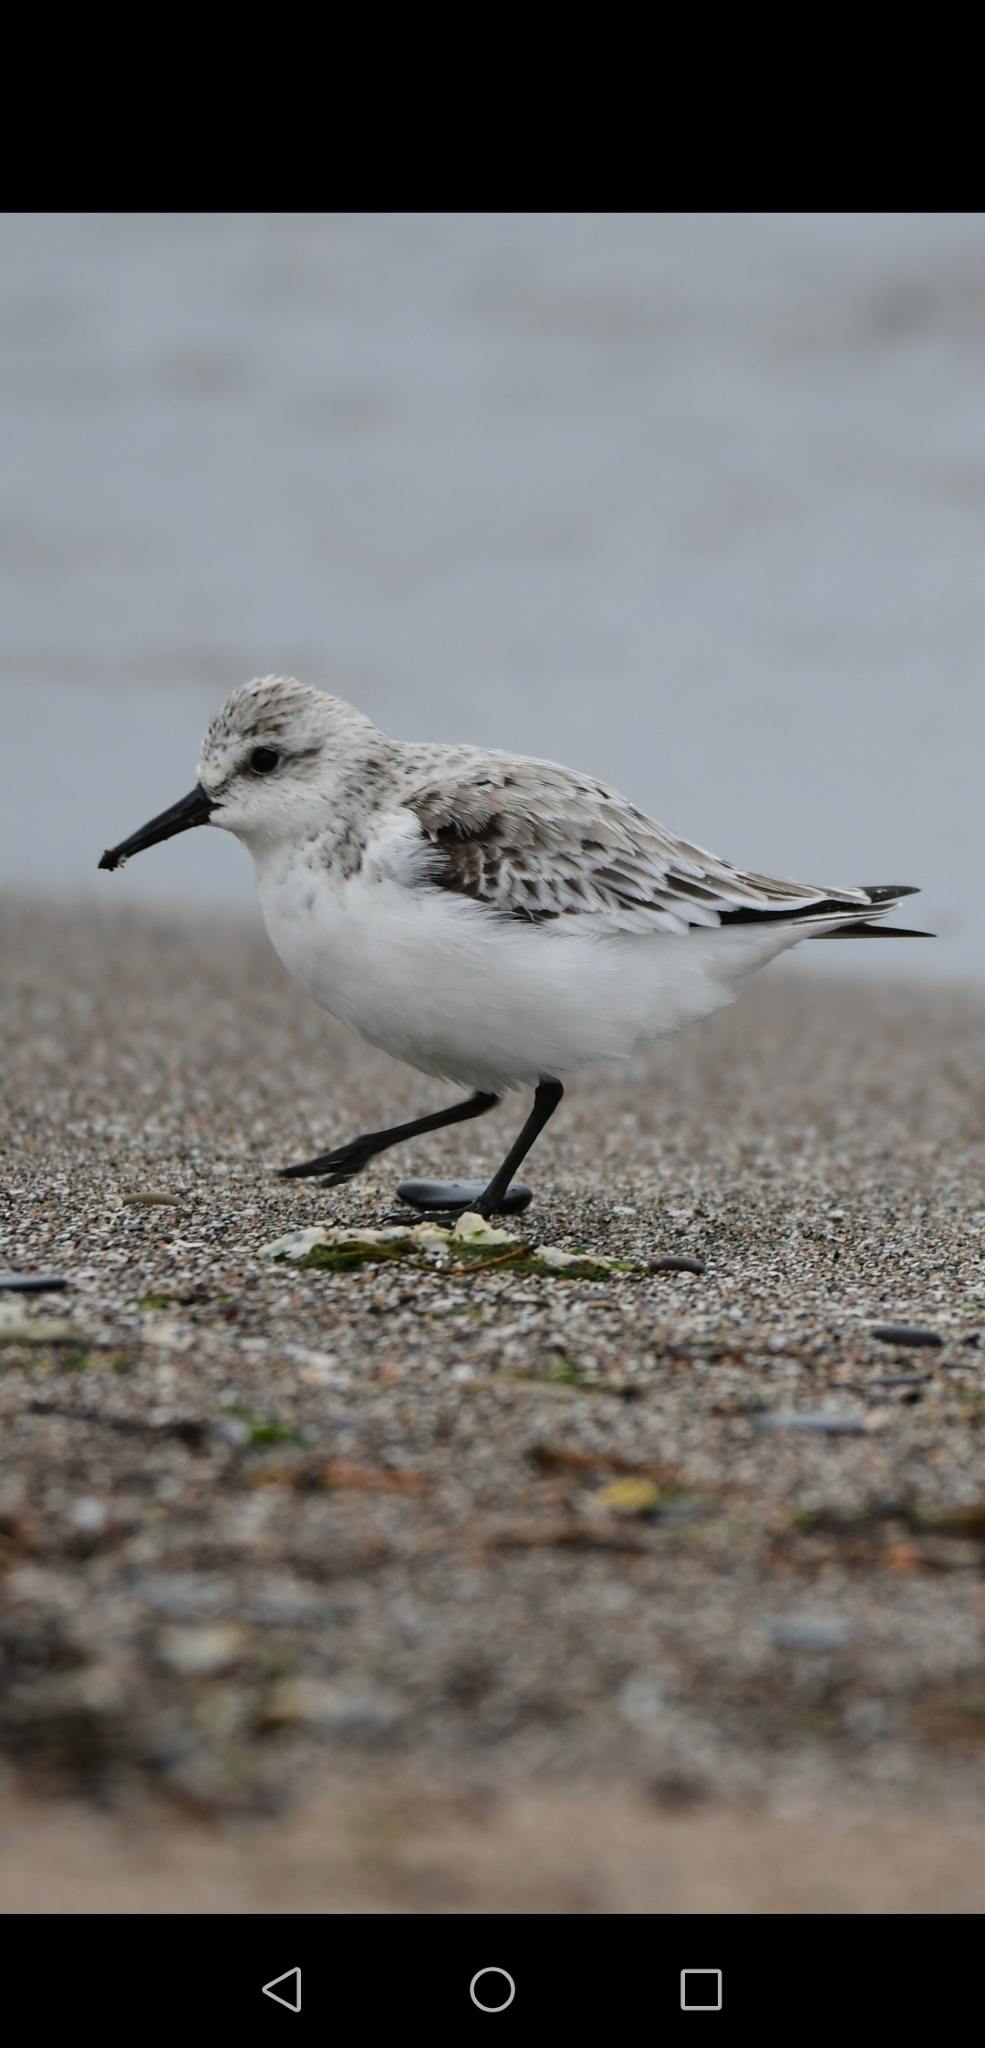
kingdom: Animalia
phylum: Chordata
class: Aves
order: Charadriiformes
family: Scolopacidae
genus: Calidris
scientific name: Calidris alba
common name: Sanderling
